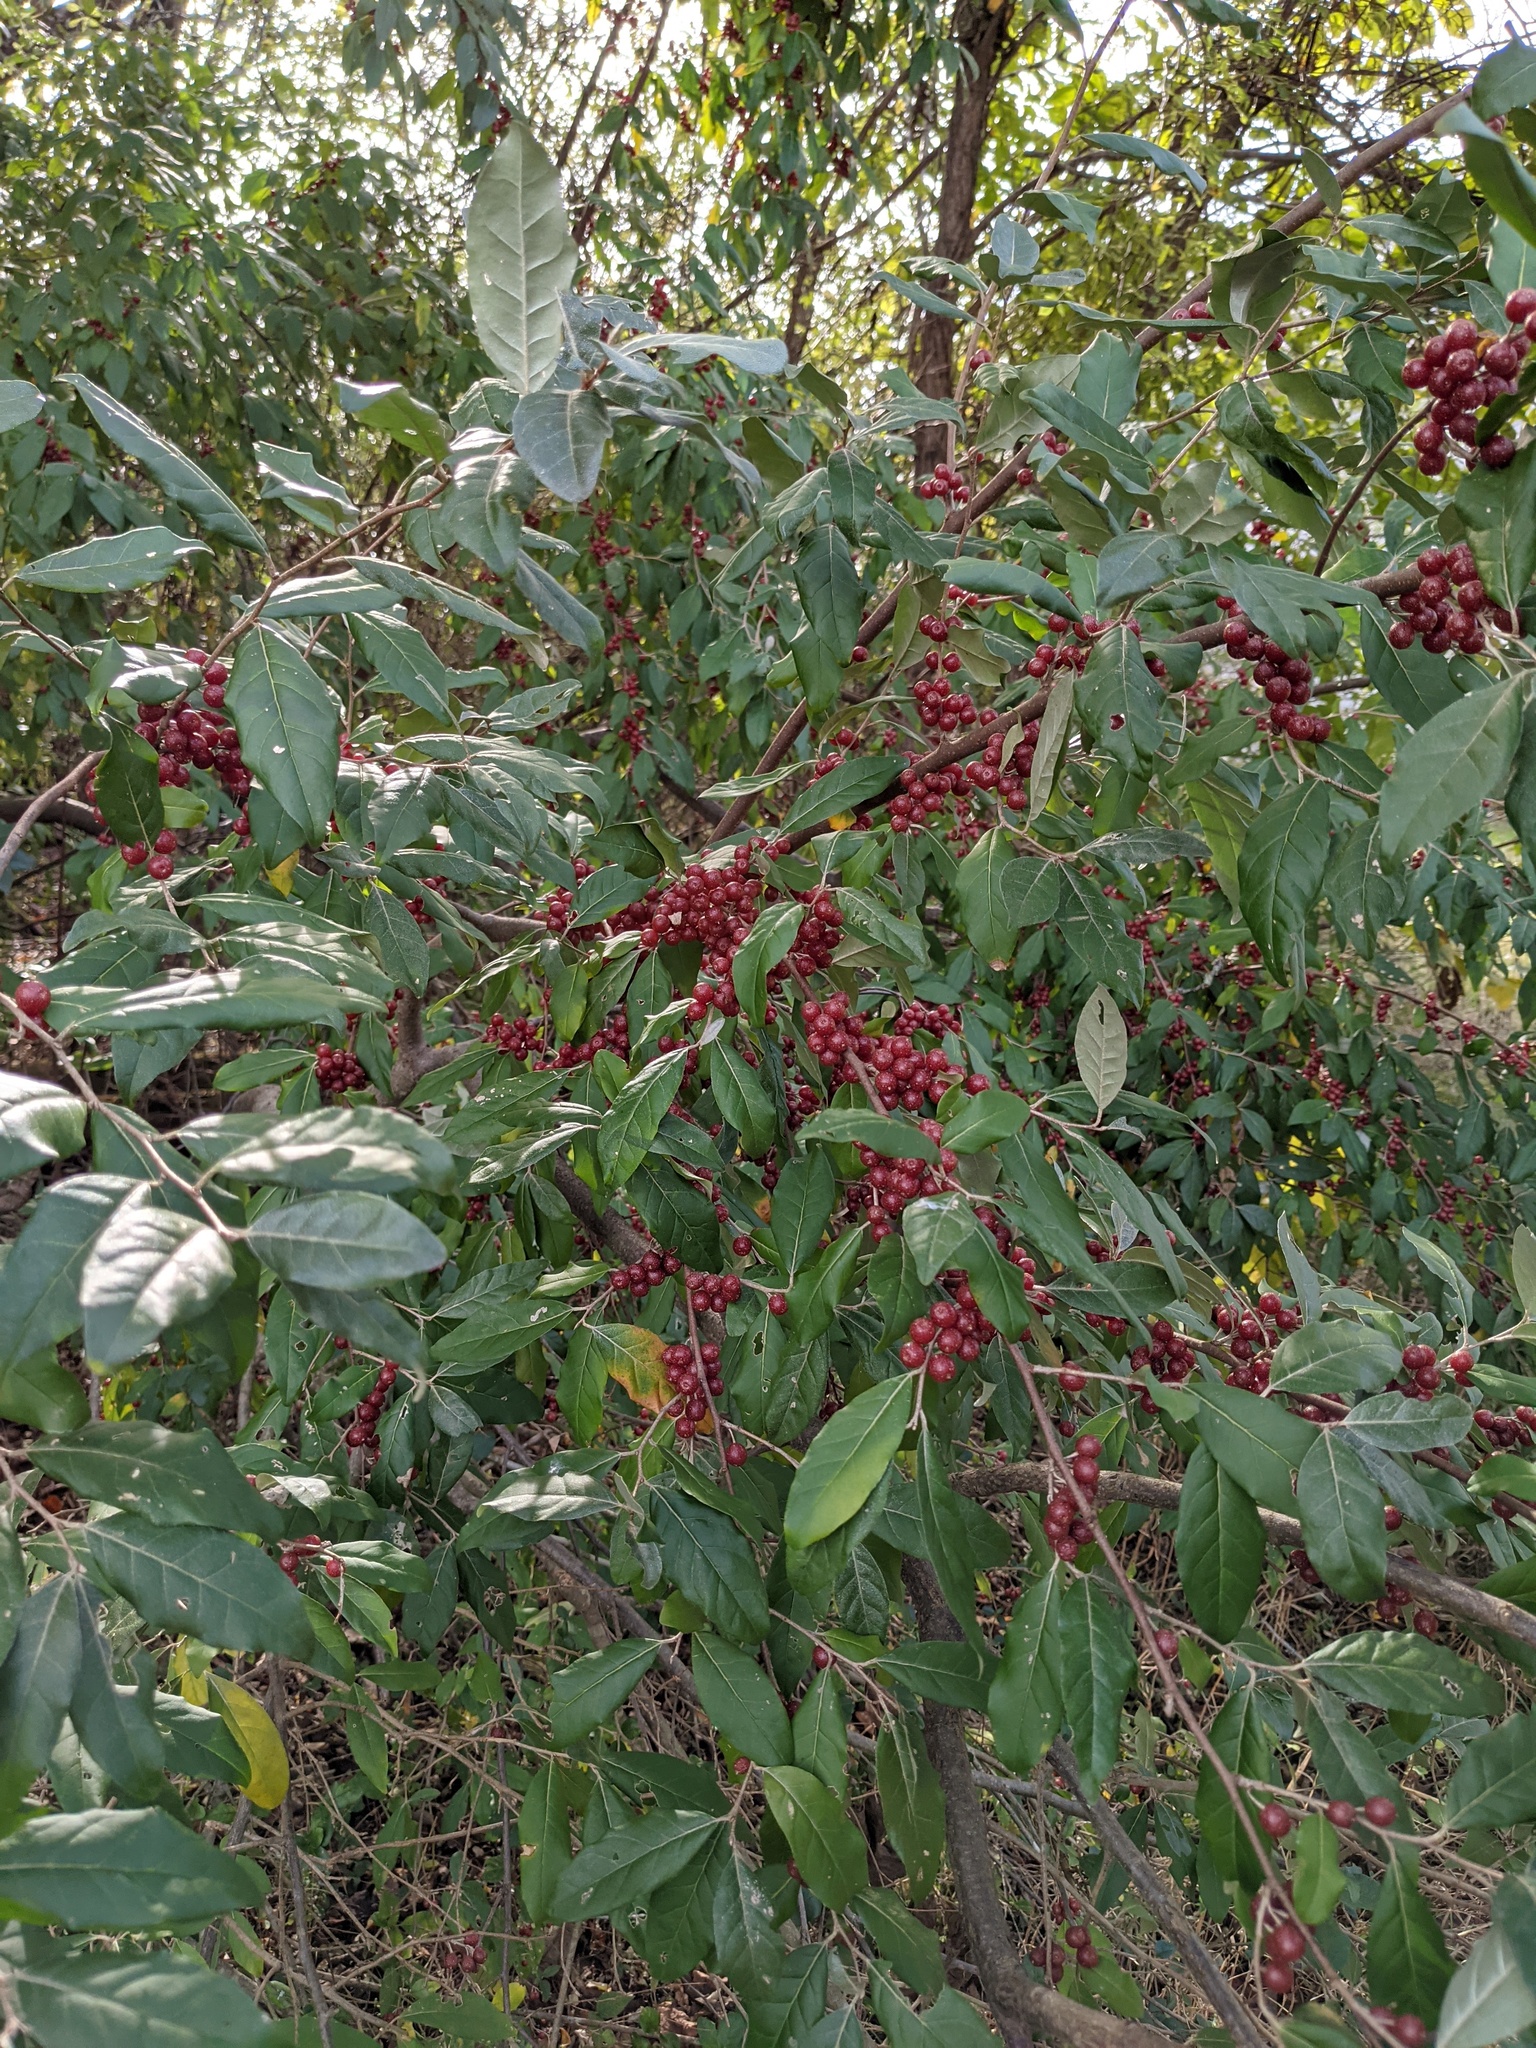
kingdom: Plantae
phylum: Tracheophyta
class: Magnoliopsida
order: Rosales
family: Elaeagnaceae
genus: Elaeagnus
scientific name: Elaeagnus umbellata
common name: Autumn olive
